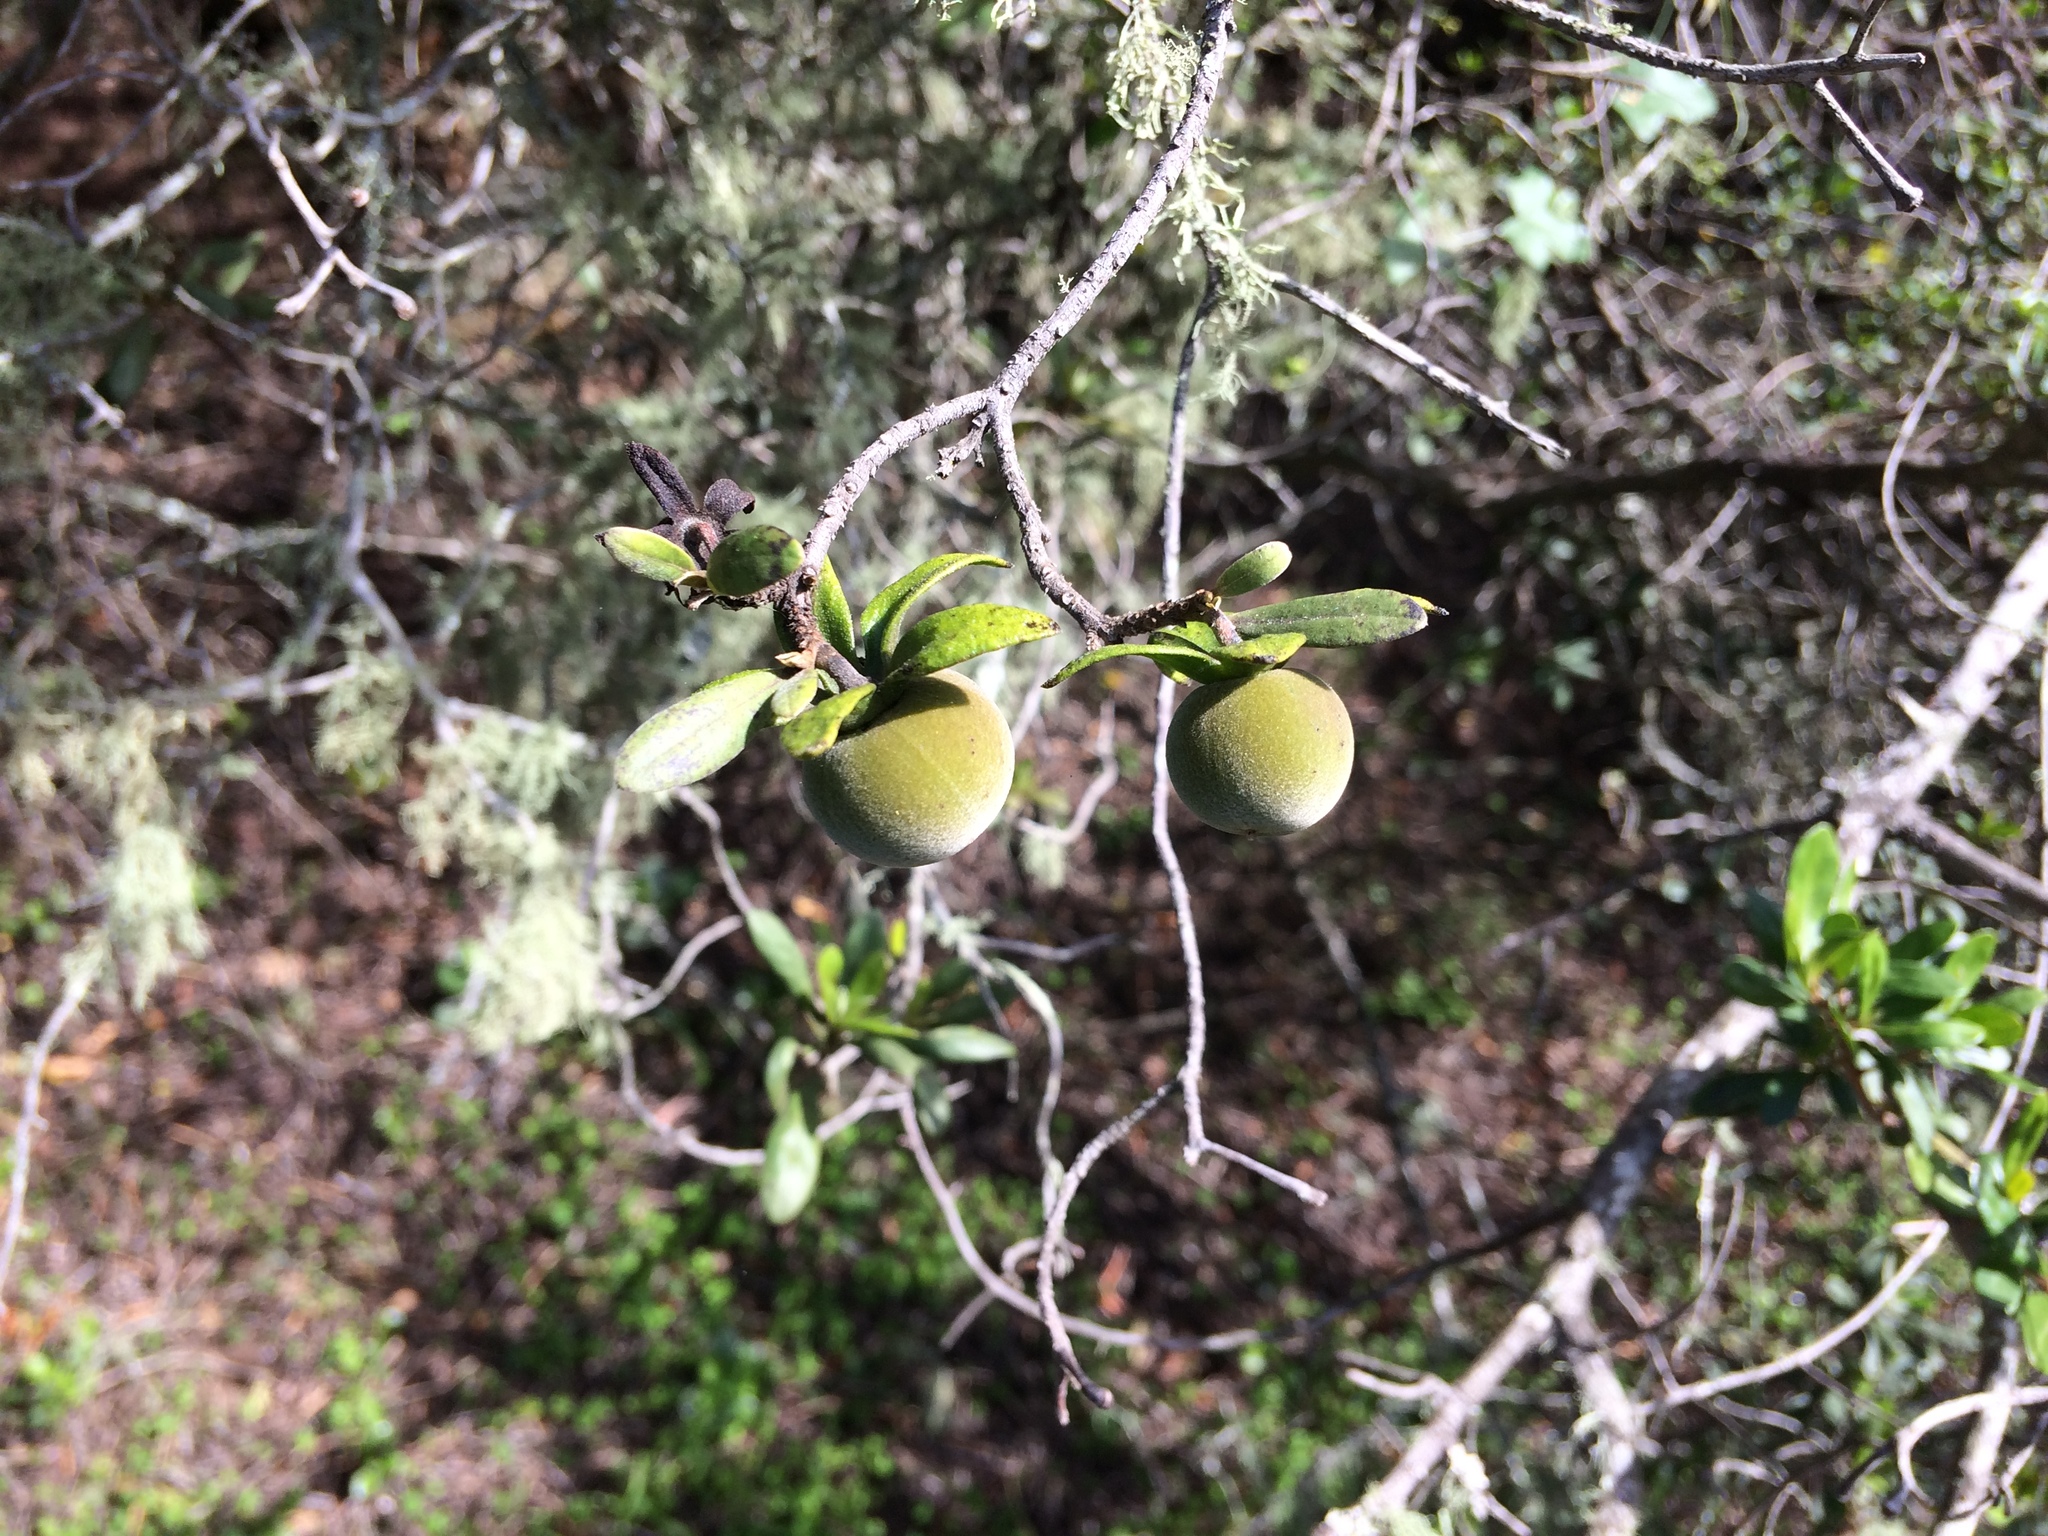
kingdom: Plantae
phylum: Tracheophyta
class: Magnoliopsida
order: Ericales
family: Ebenaceae
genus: Diospyros
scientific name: Diospyros dichrophylla
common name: Common star-apple
